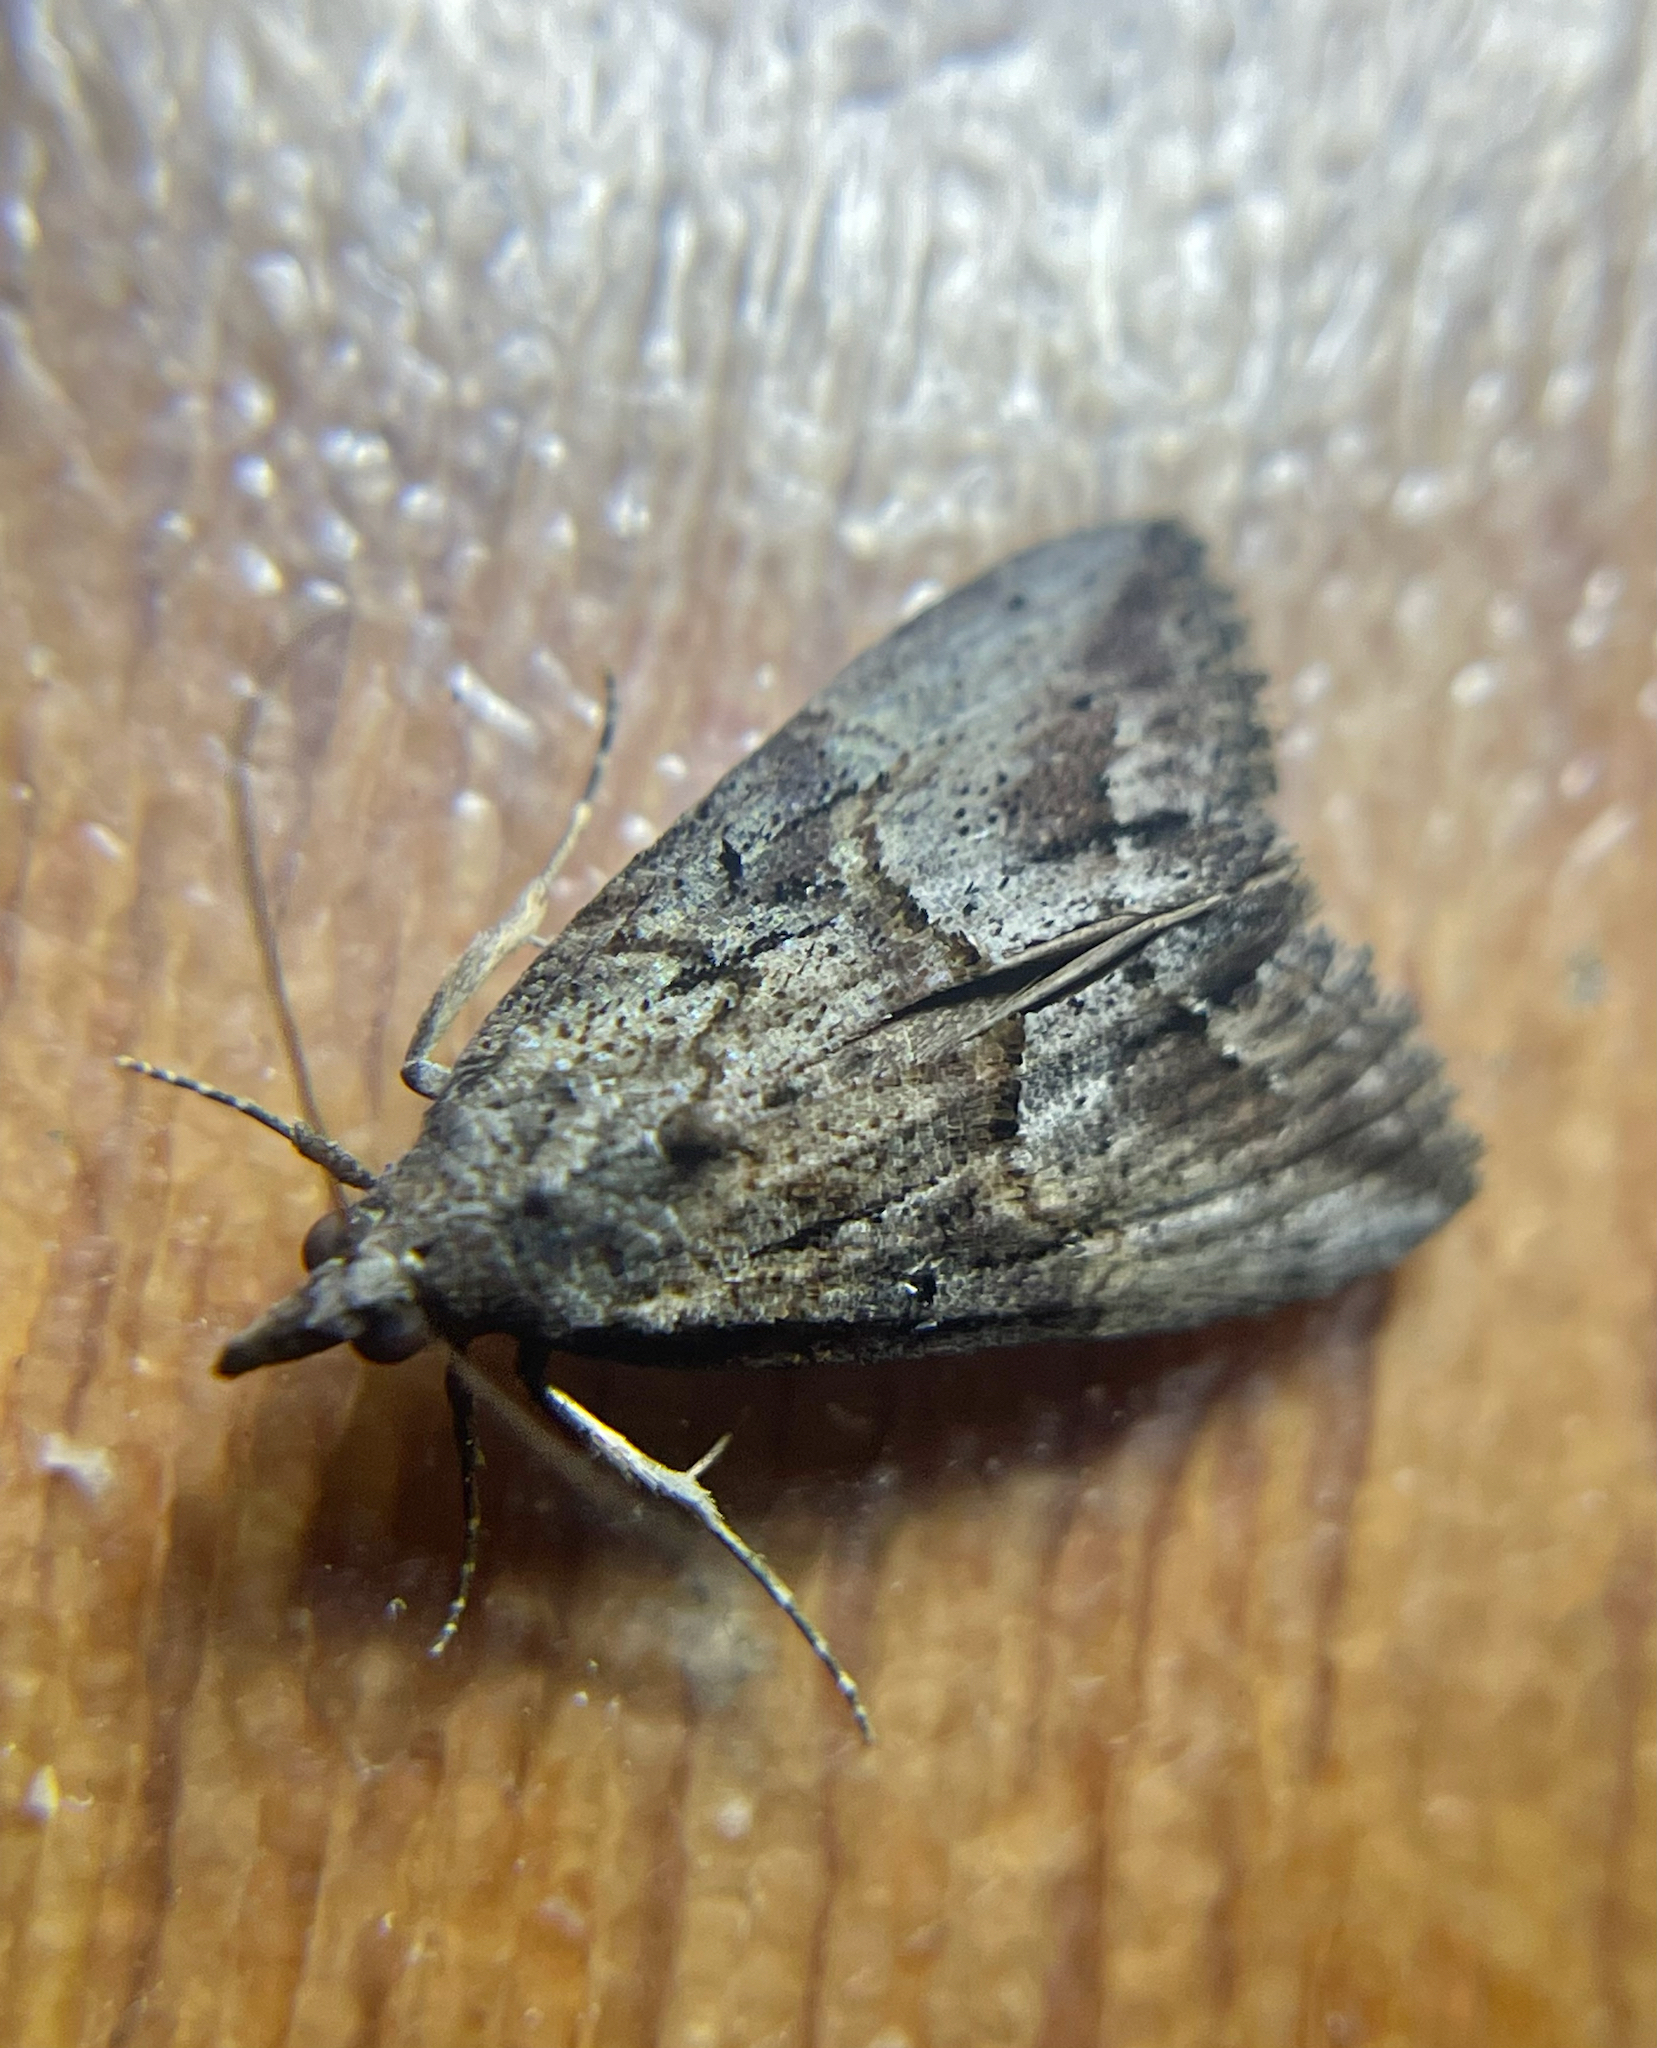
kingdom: Animalia
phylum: Arthropoda
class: Insecta
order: Lepidoptera
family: Erebidae
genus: Hypena
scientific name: Hypena scabra
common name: Green cloverworm
